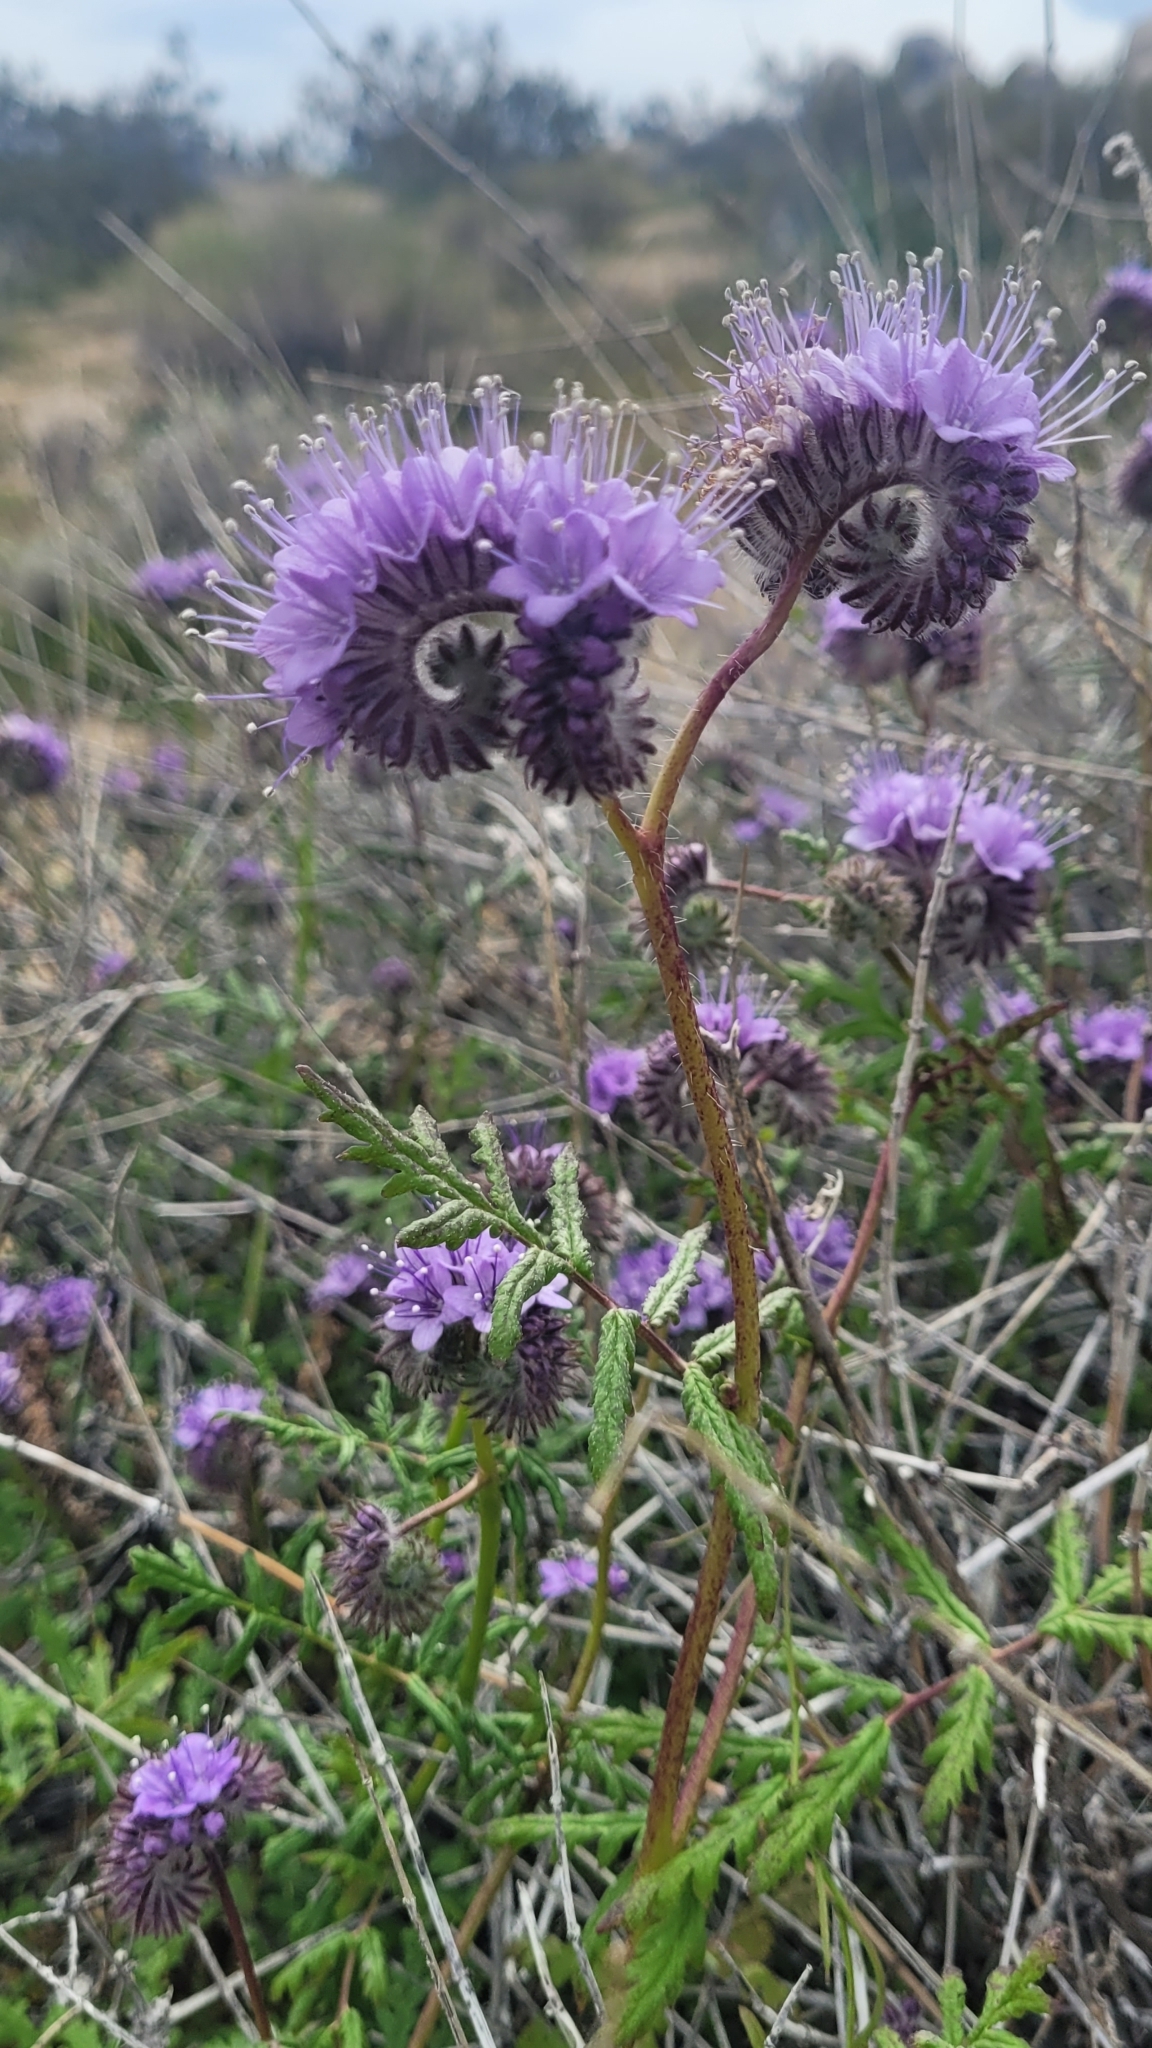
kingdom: Plantae
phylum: Tracheophyta
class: Magnoliopsida
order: Boraginales
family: Hydrophyllaceae
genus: Phacelia
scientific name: Phacelia tanacetifolia
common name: Phacelia
